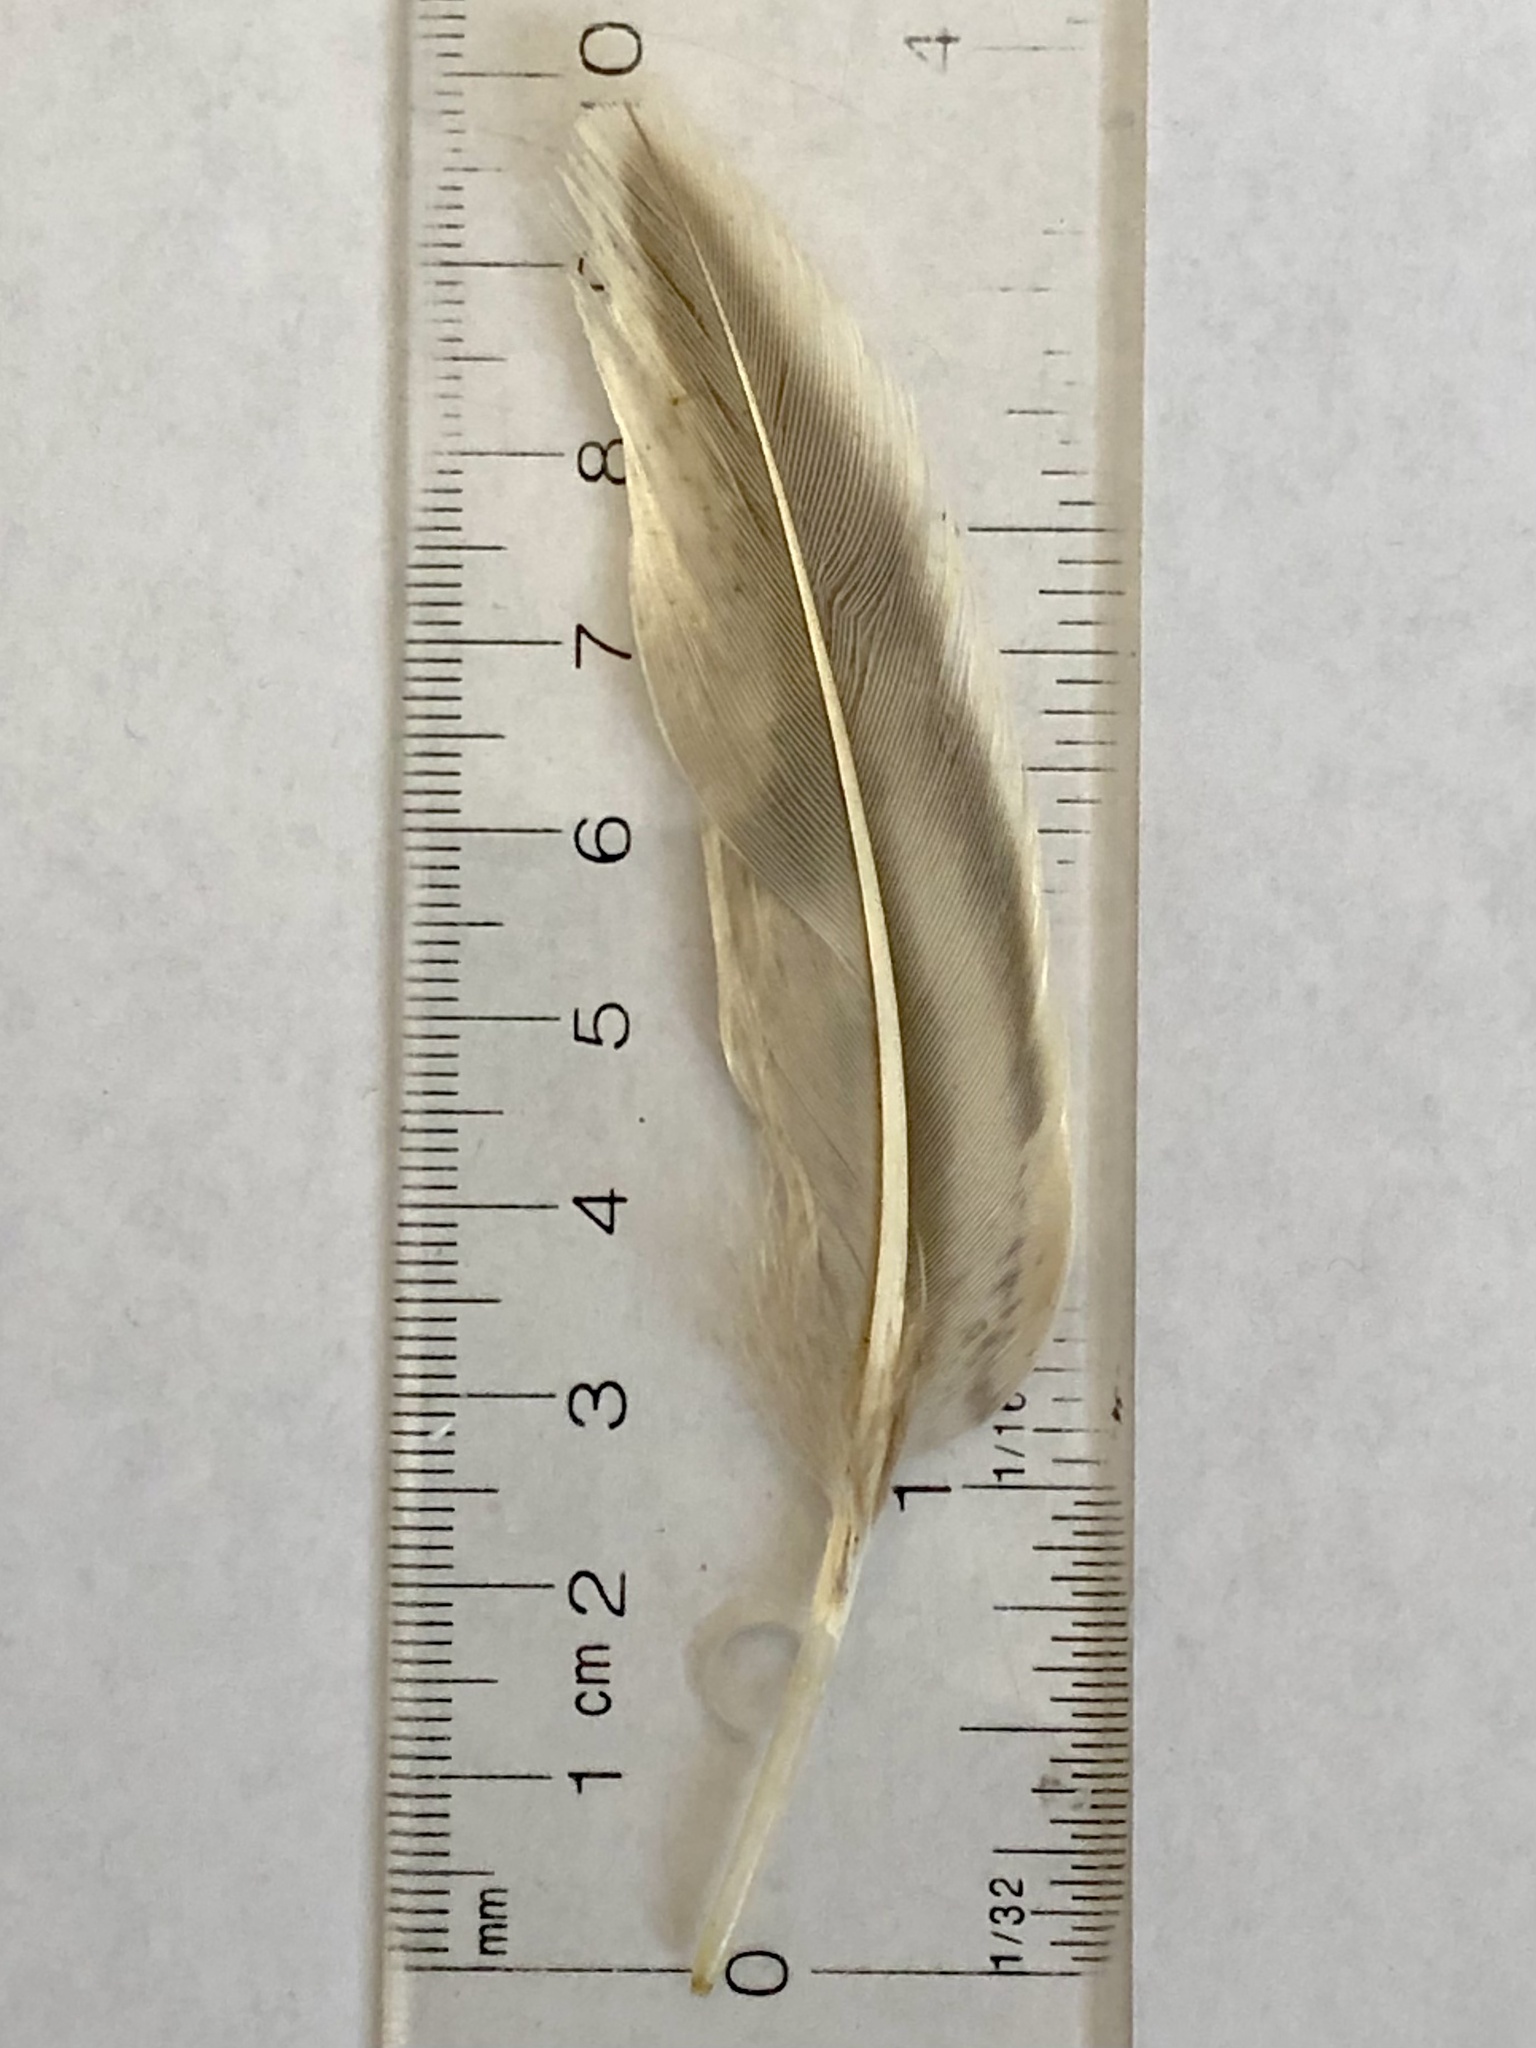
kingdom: Animalia
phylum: Chordata
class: Aves
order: Anseriformes
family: Anatidae
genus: Anas
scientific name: Anas platyrhynchos
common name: Mallard
